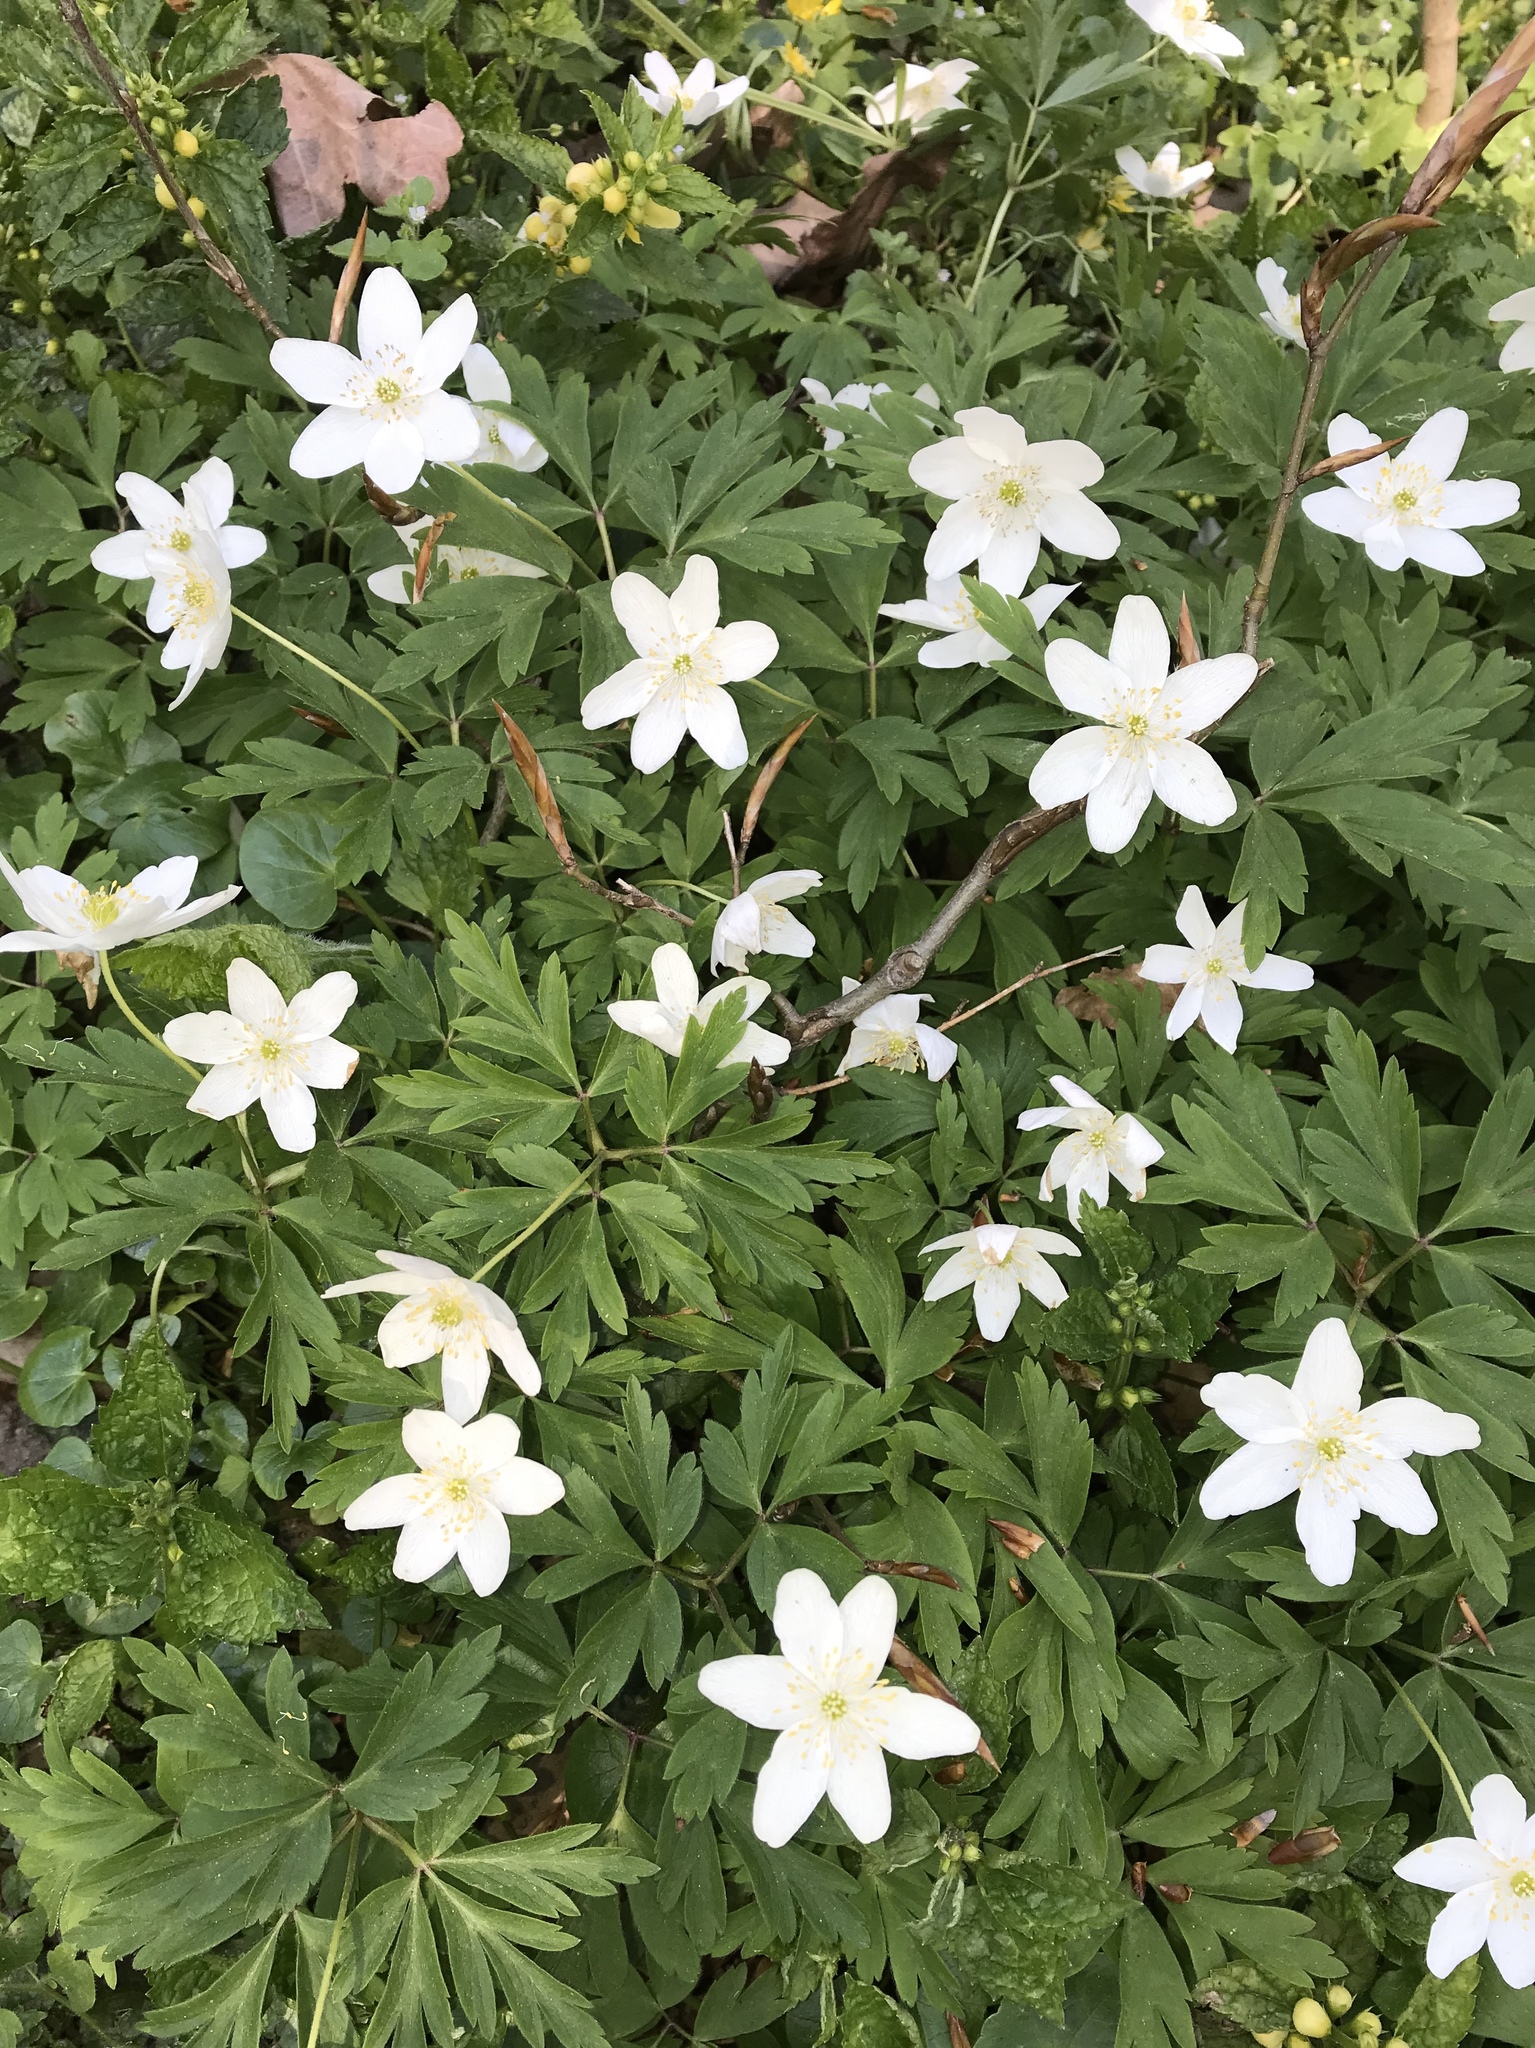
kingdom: Plantae
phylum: Tracheophyta
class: Magnoliopsida
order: Ranunculales
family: Ranunculaceae
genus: Anemone
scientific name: Anemone nemorosa
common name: Wood anemone
